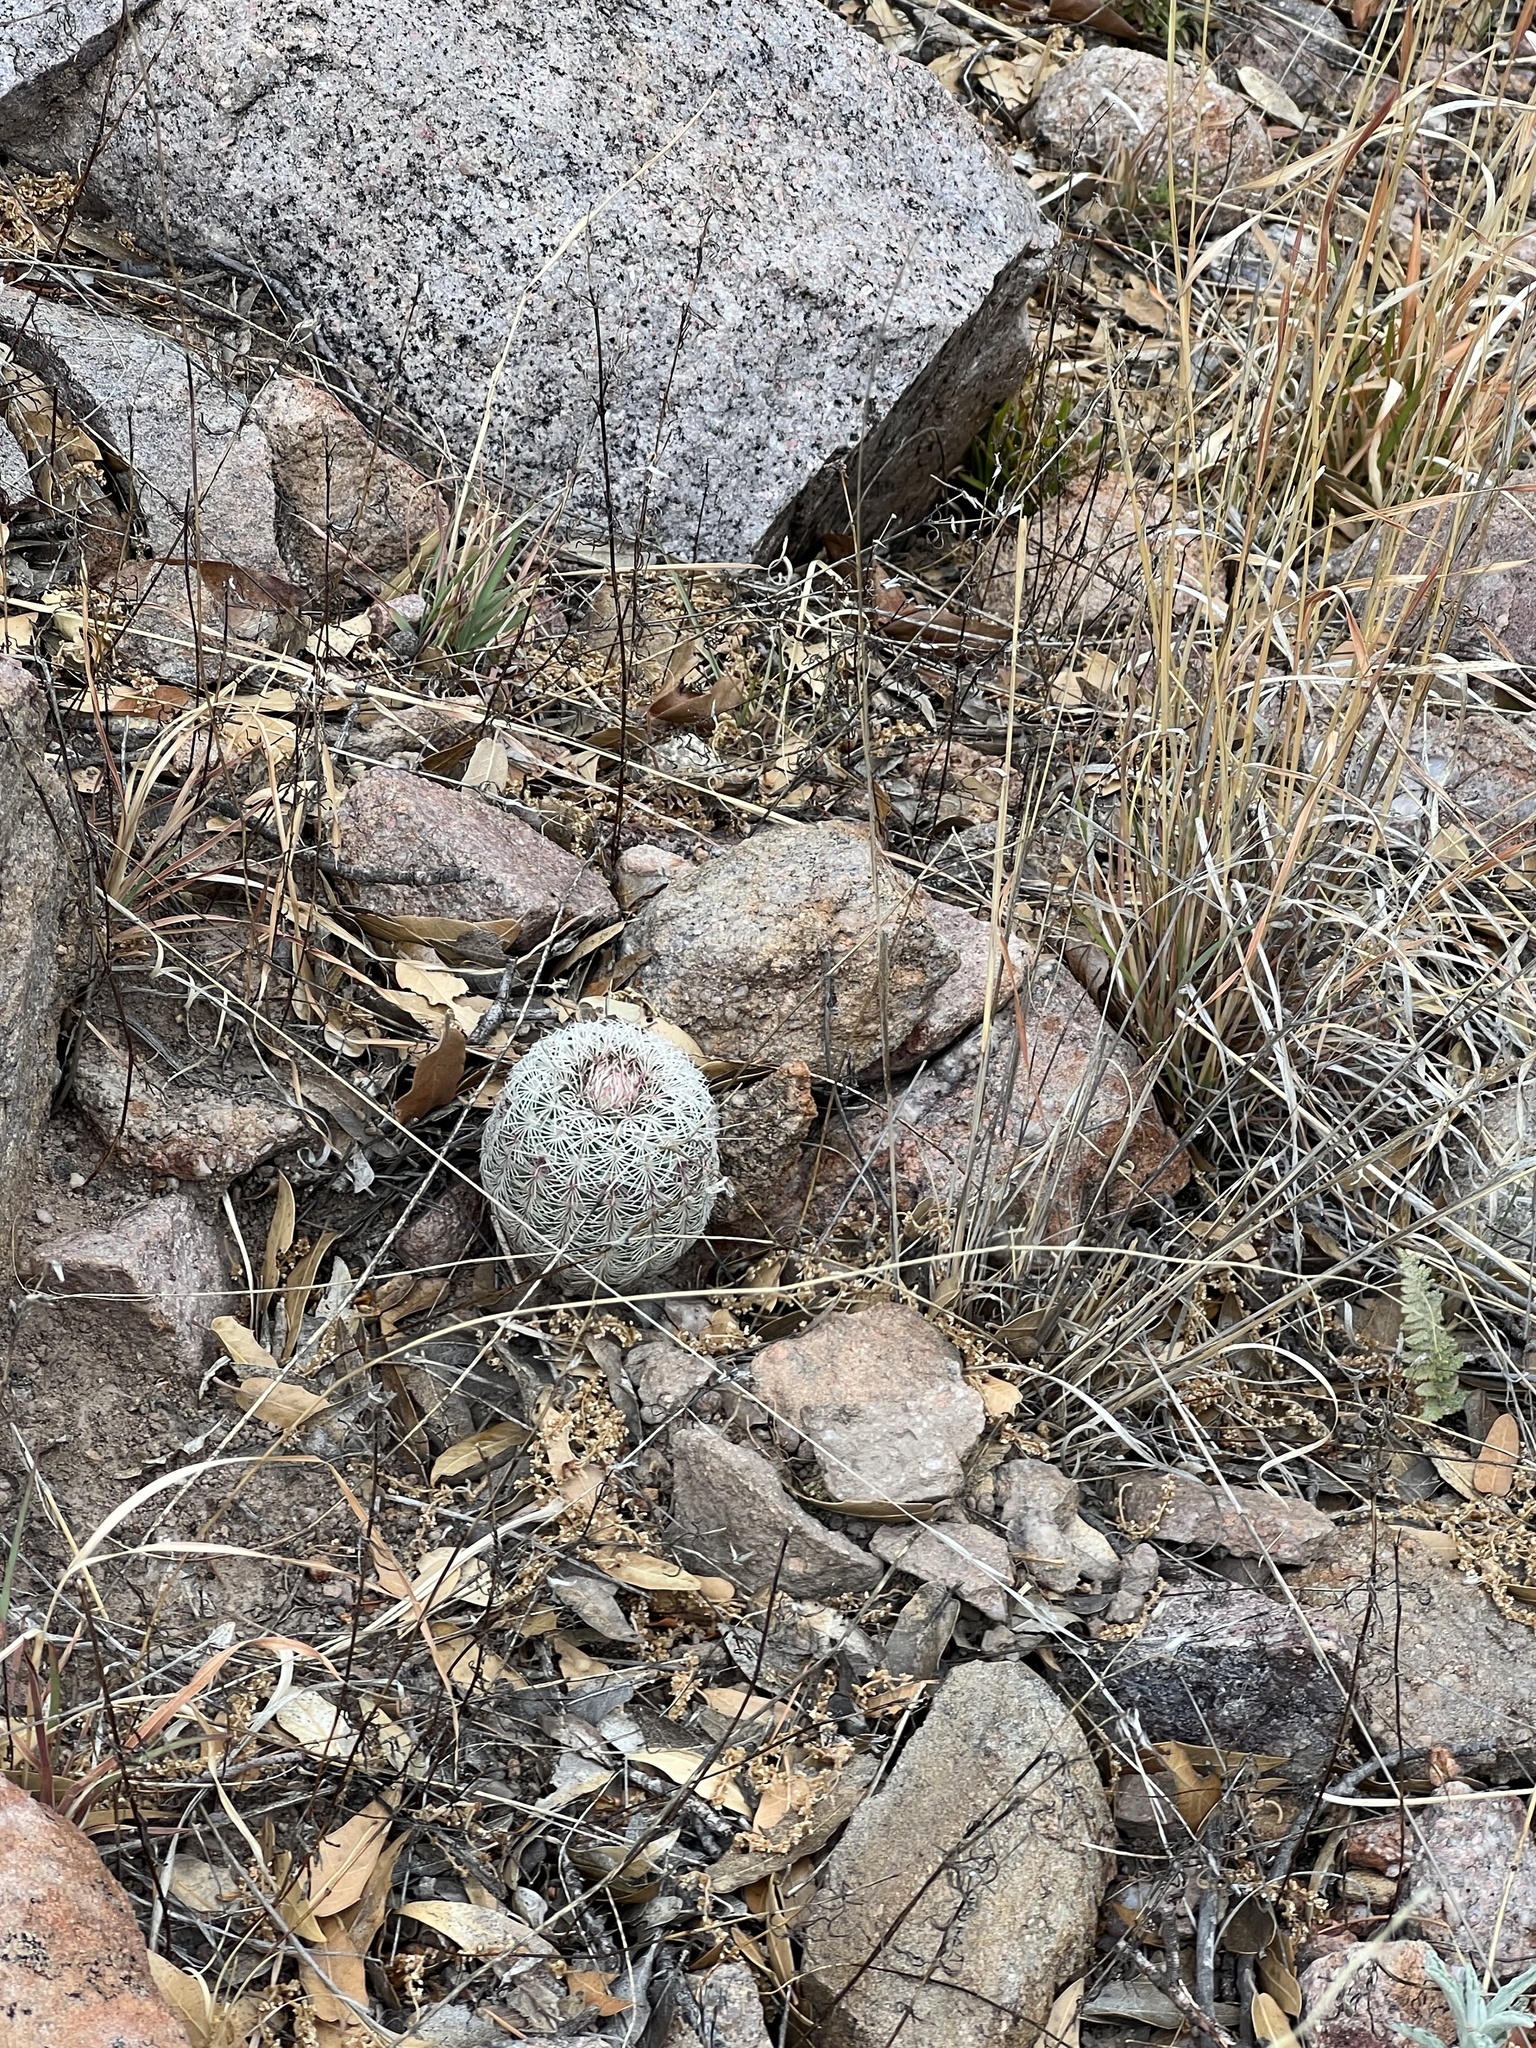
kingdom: Plantae
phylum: Tracheophyta
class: Magnoliopsida
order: Caryophyllales
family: Cactaceae
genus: Echinocereus
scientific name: Echinocereus rigidissimus
